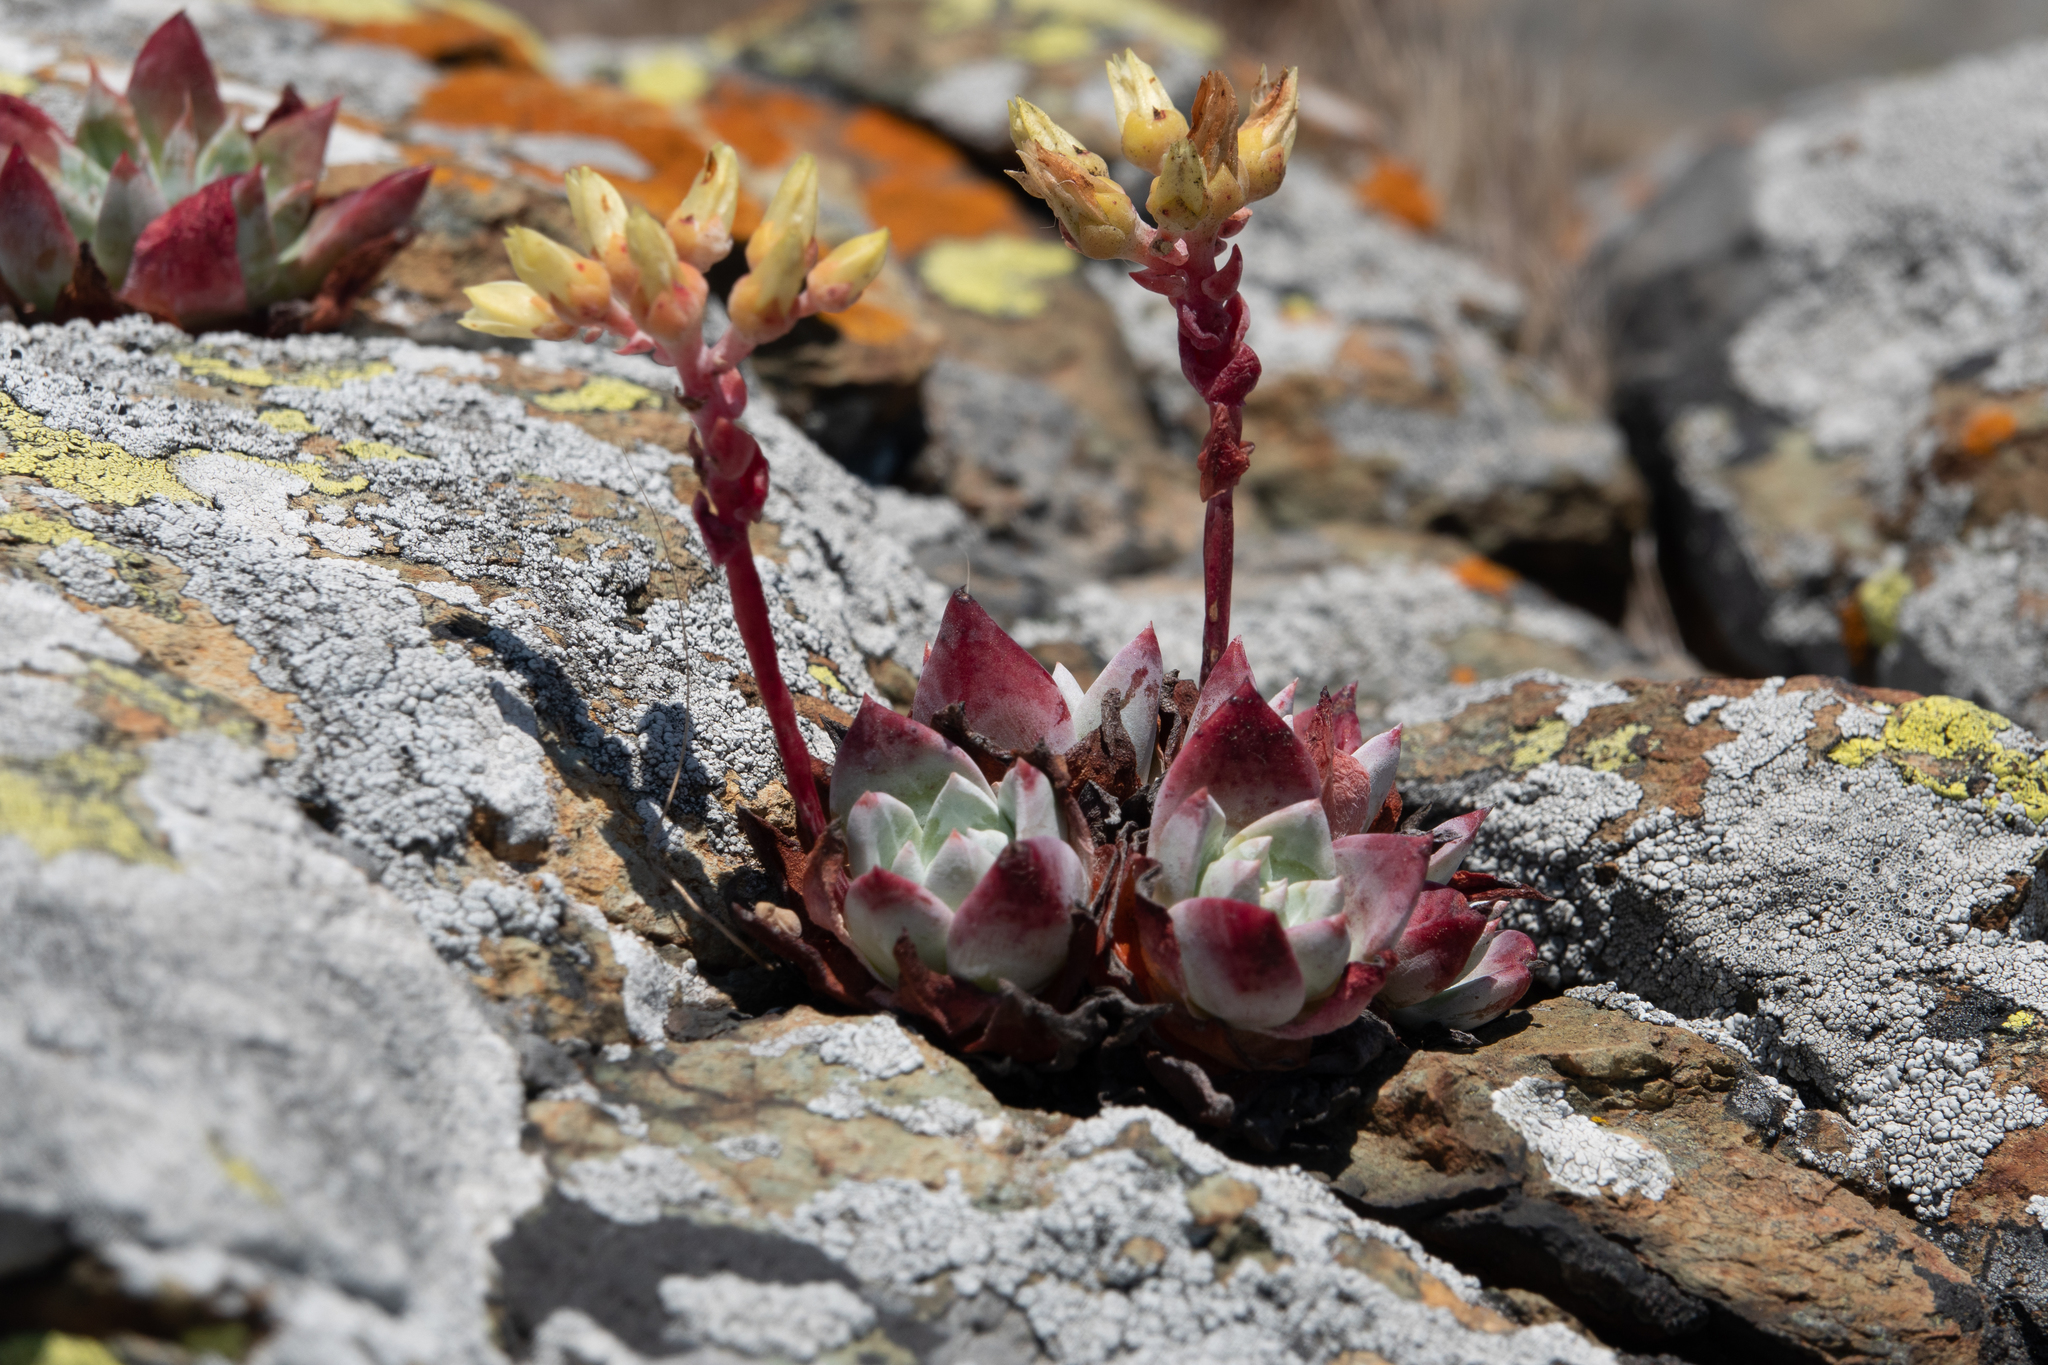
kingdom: Plantae
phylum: Tracheophyta
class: Magnoliopsida
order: Saxifragales
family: Crassulaceae
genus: Dudleya
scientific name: Dudleya farinosa
